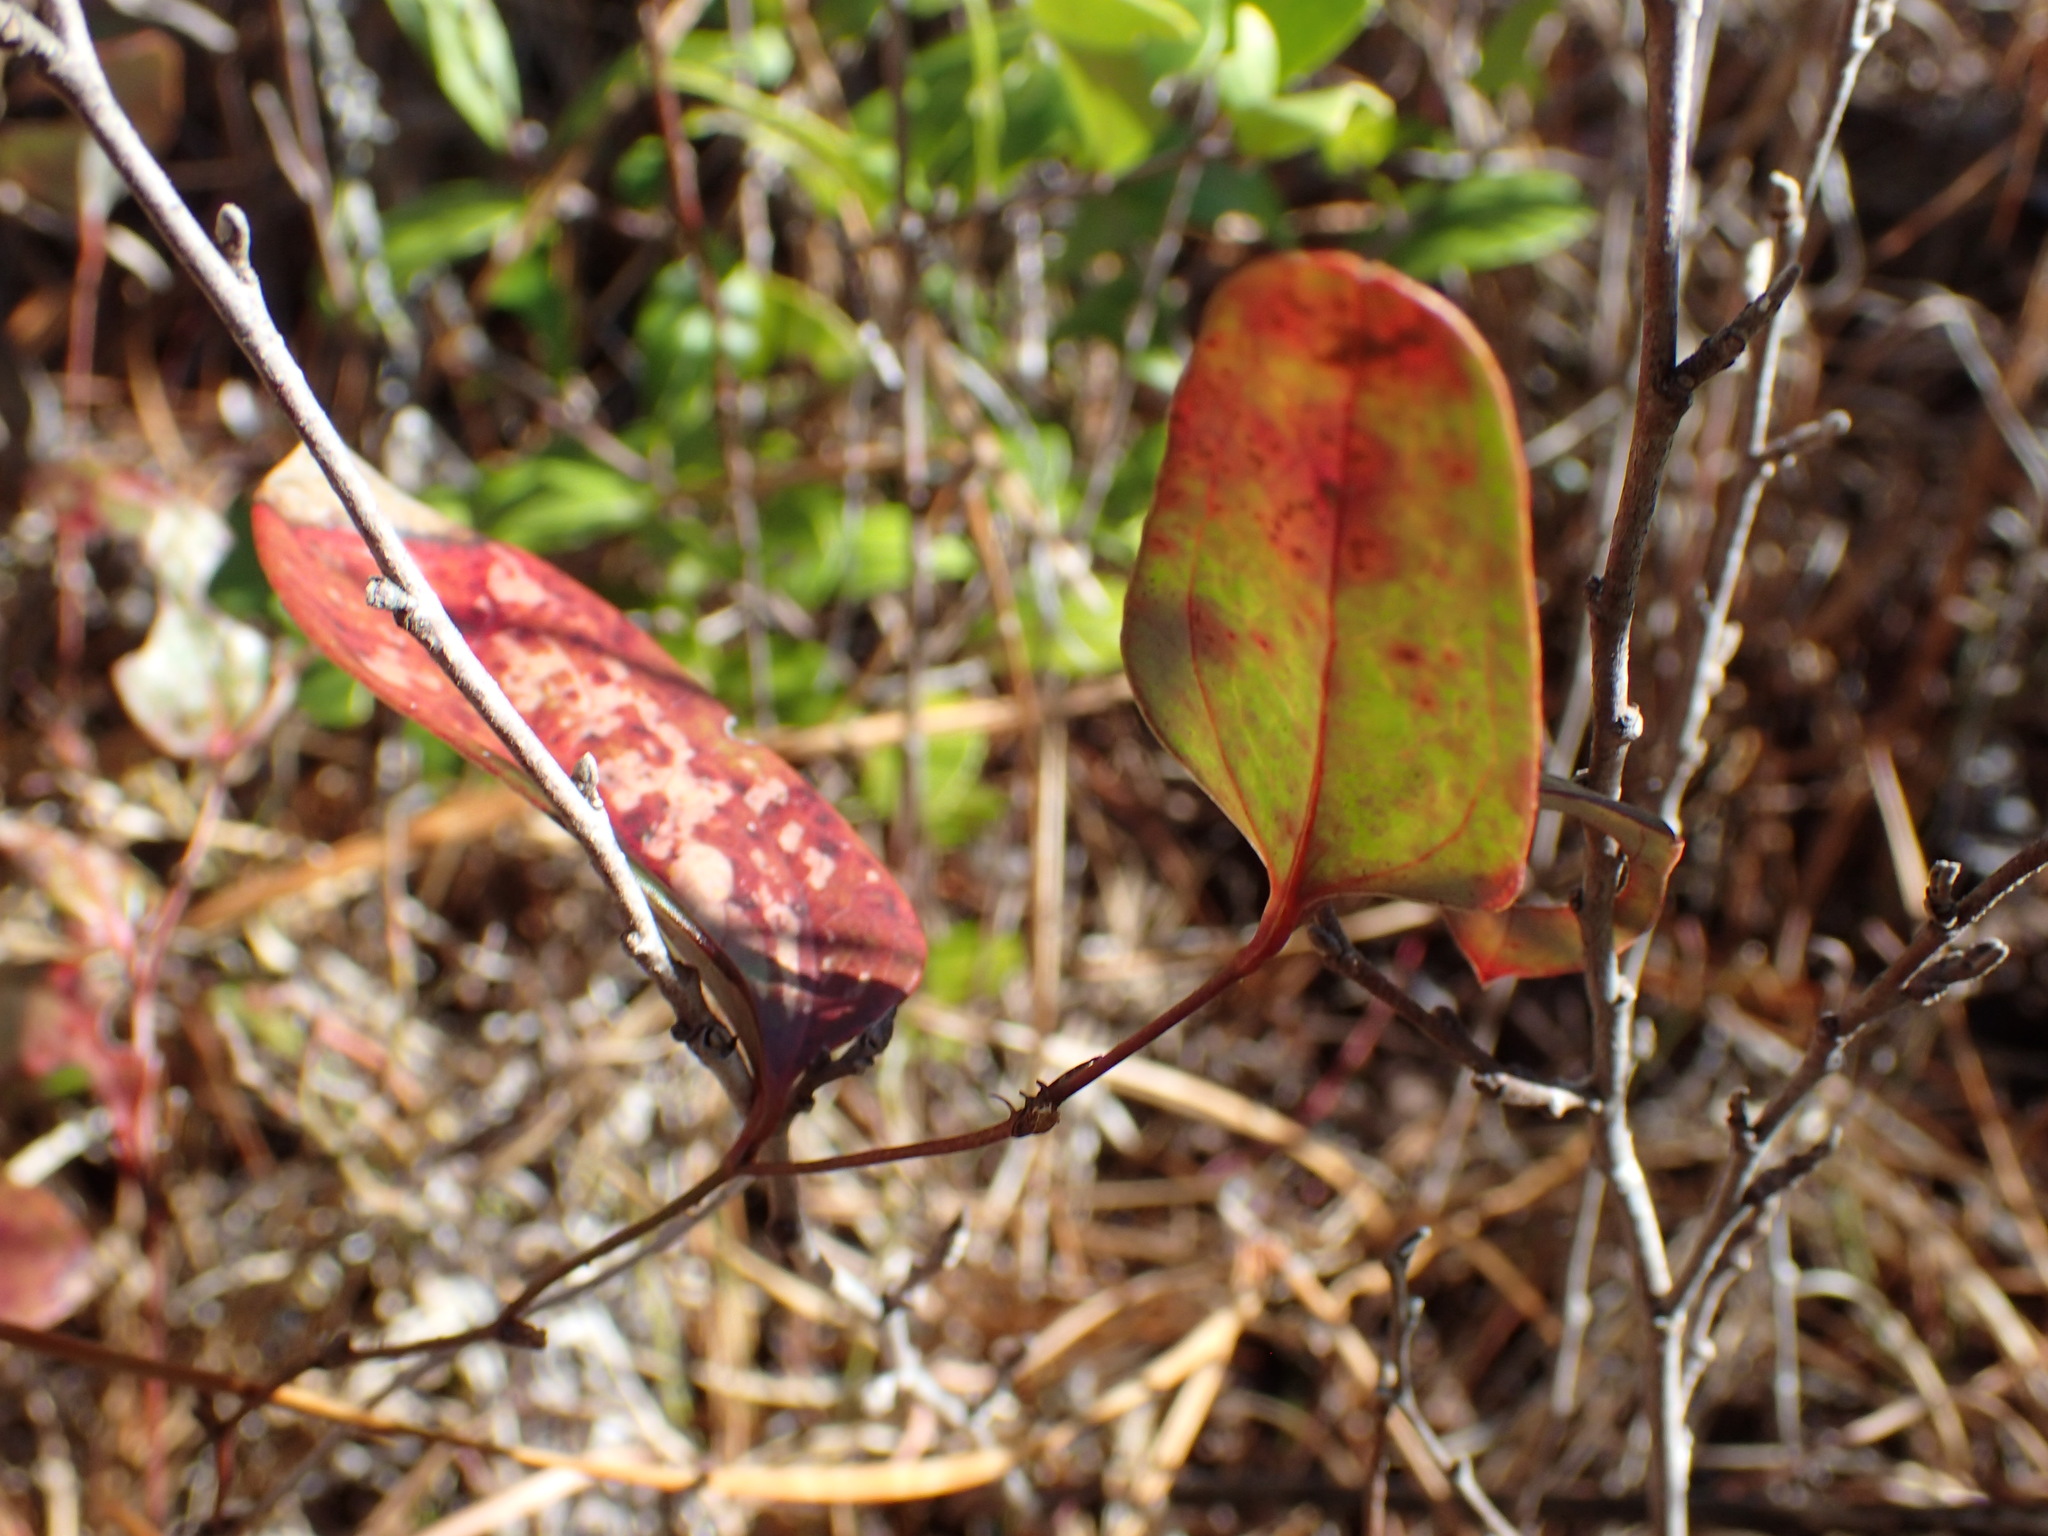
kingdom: Plantae
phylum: Tracheophyta
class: Liliopsida
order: Liliales
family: Smilacaceae
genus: Smilax
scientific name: Smilax glauca
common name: Cat greenbrier
